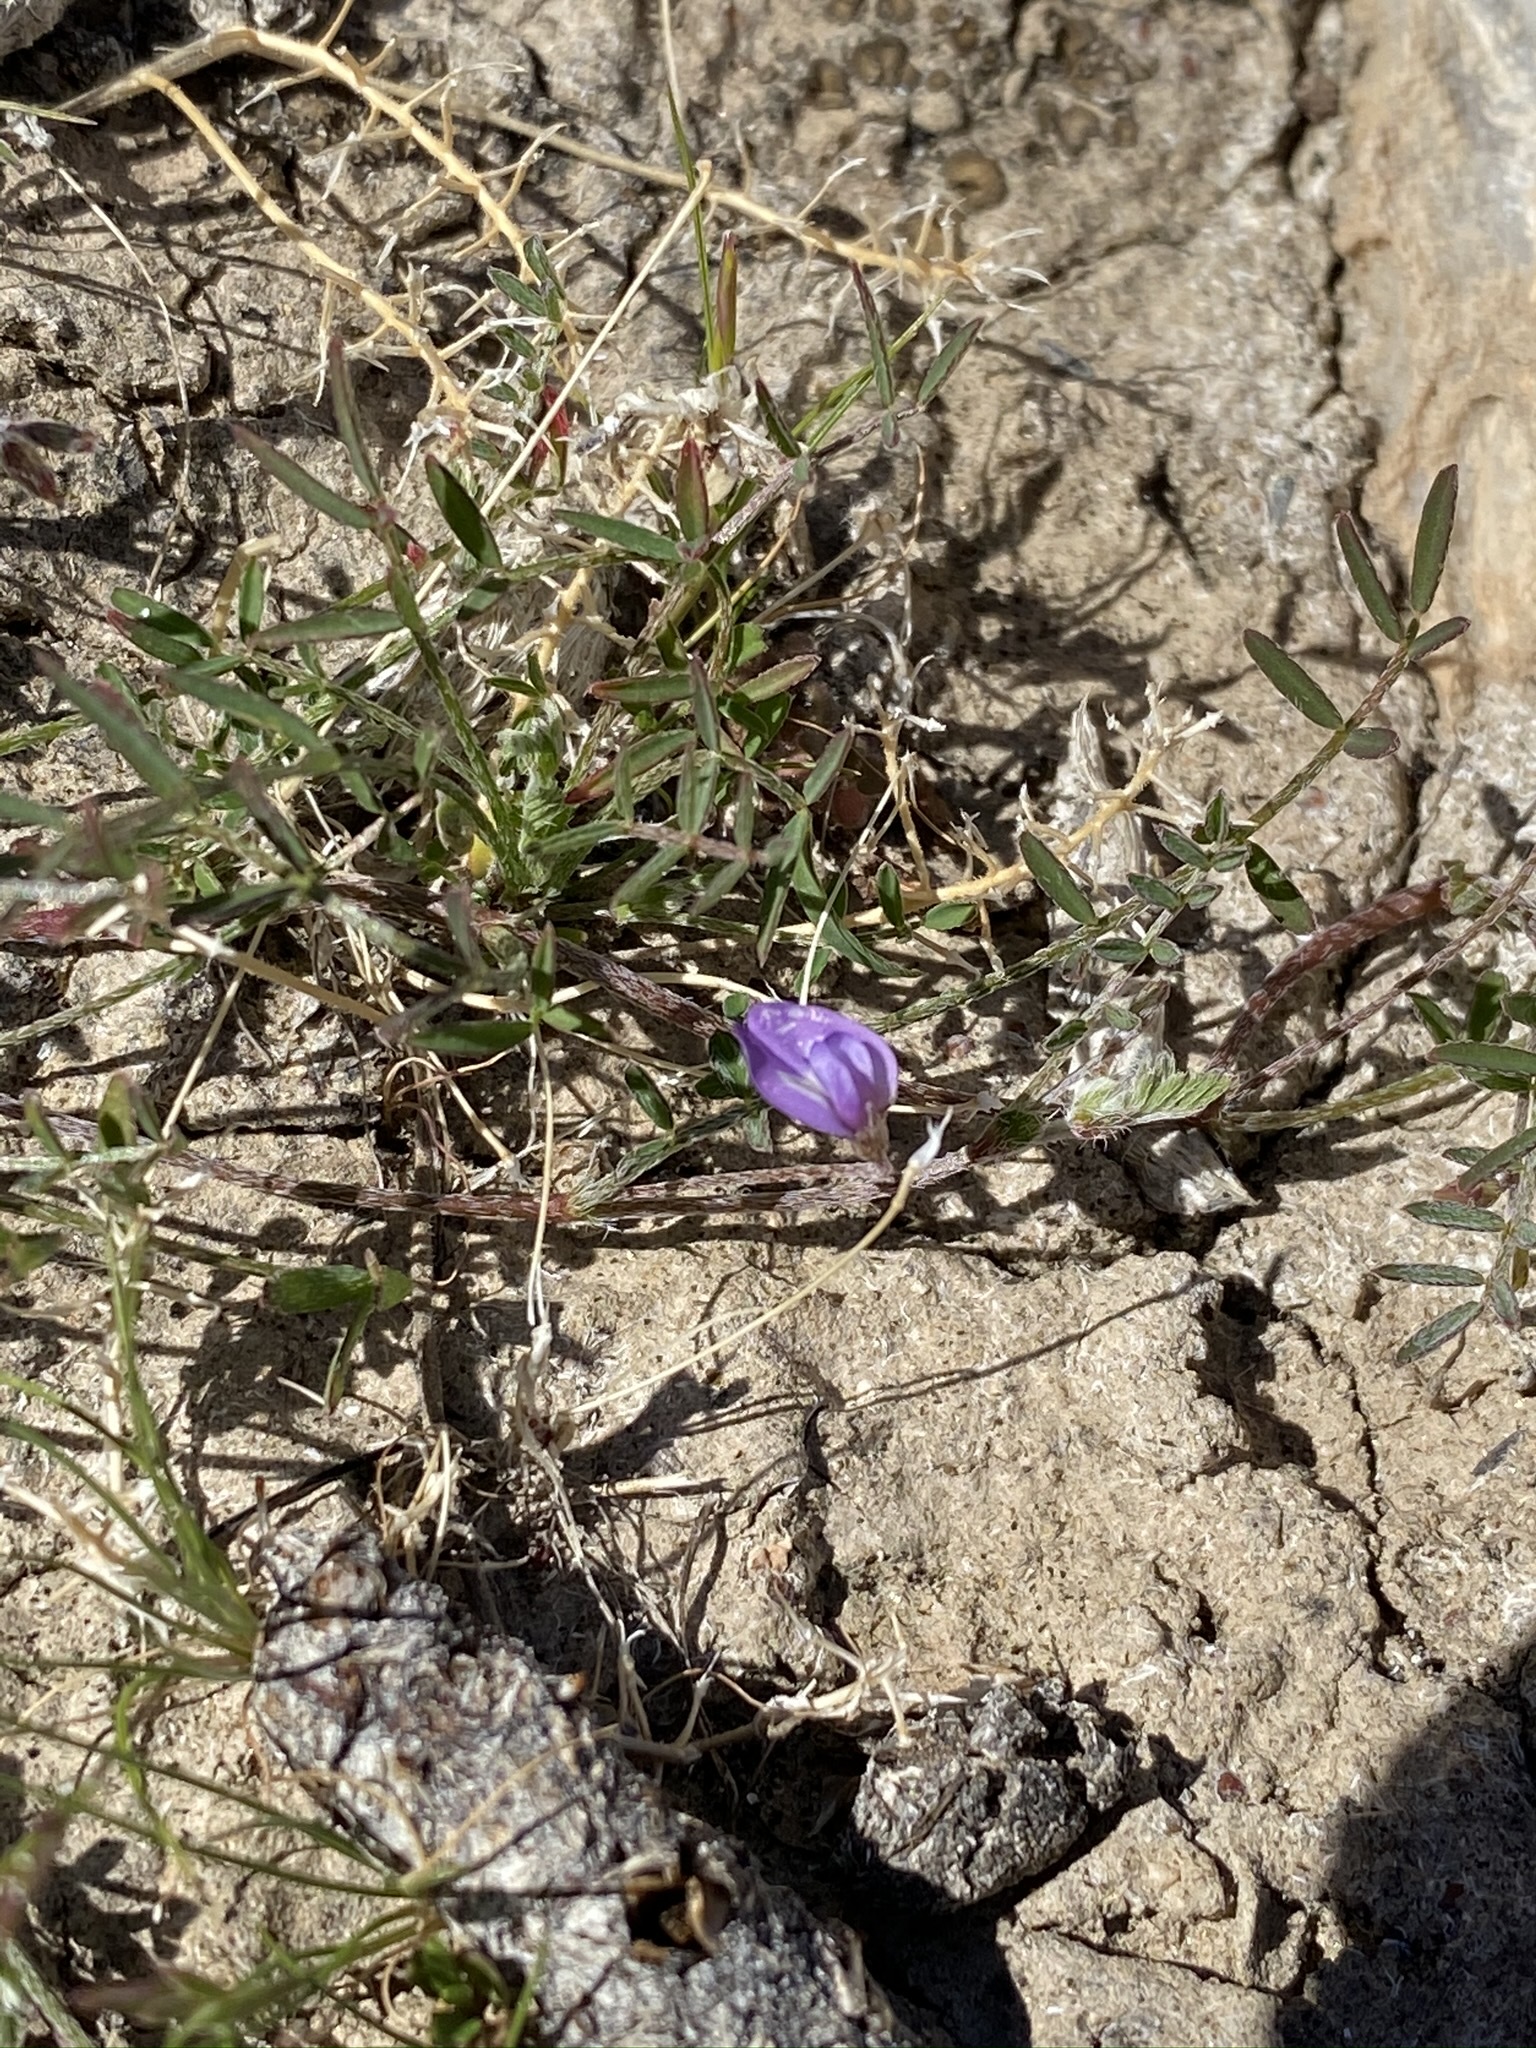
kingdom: Plantae
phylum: Tracheophyta
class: Magnoliopsida
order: Fabales
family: Fabaceae
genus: Astragalus
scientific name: Astragalus nuttallianus
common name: Smallflowered milkvetch
